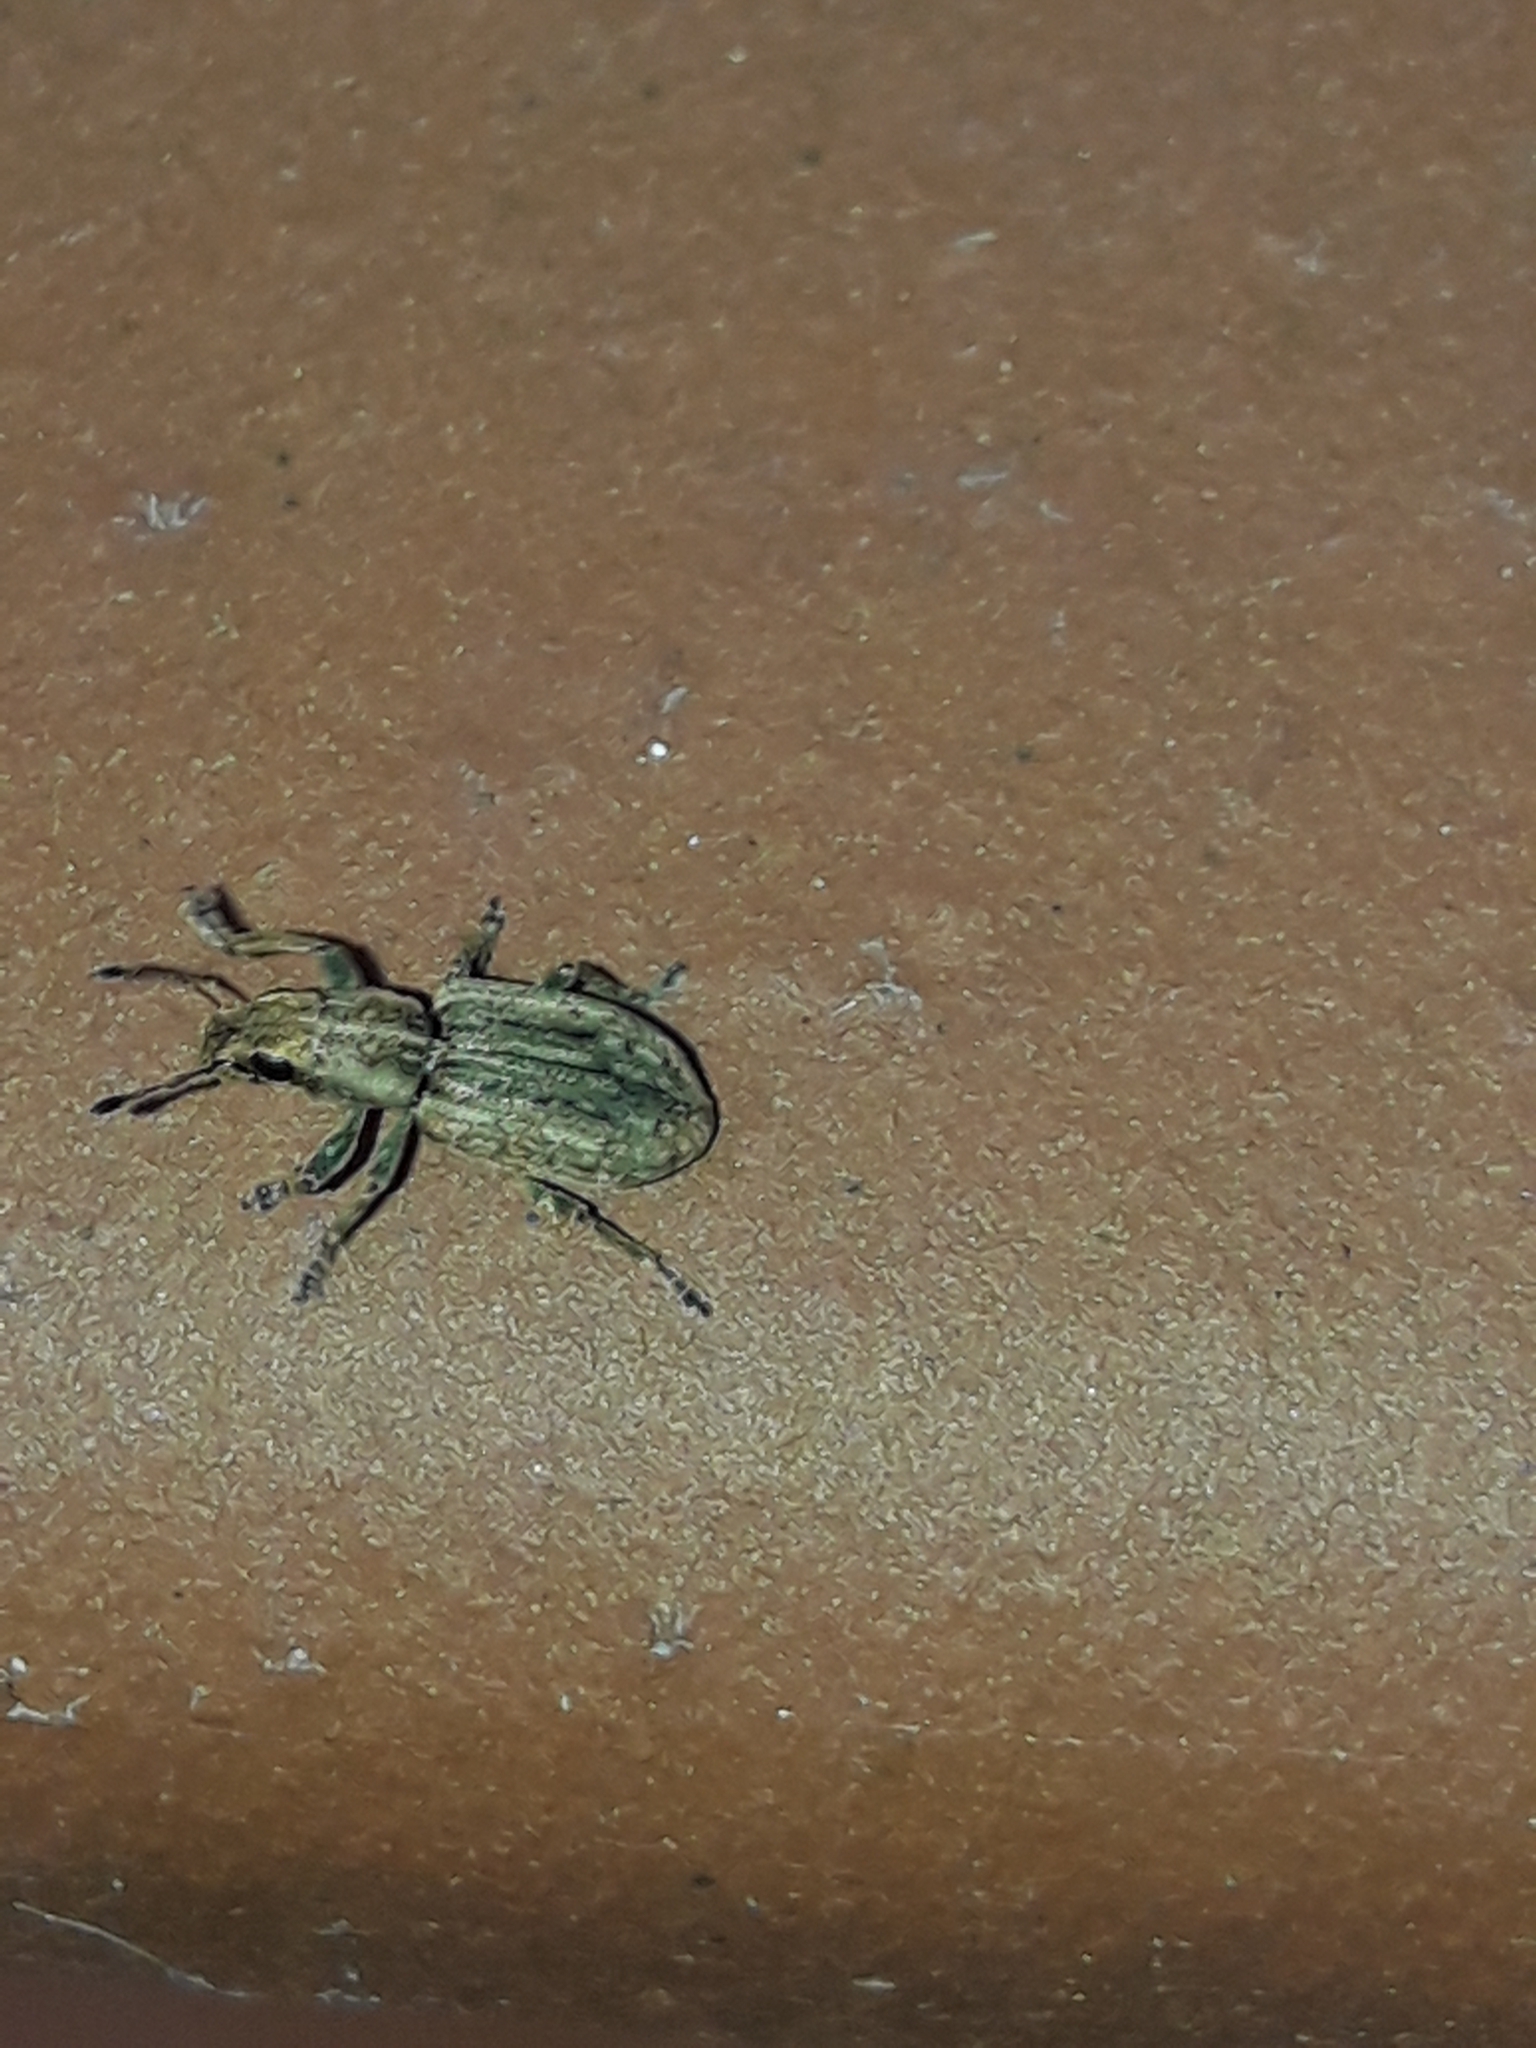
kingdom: Animalia
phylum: Arthropoda
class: Insecta
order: Coleoptera
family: Curculionidae
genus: Sitona
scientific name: Sitona obsoletus
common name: Weevil
